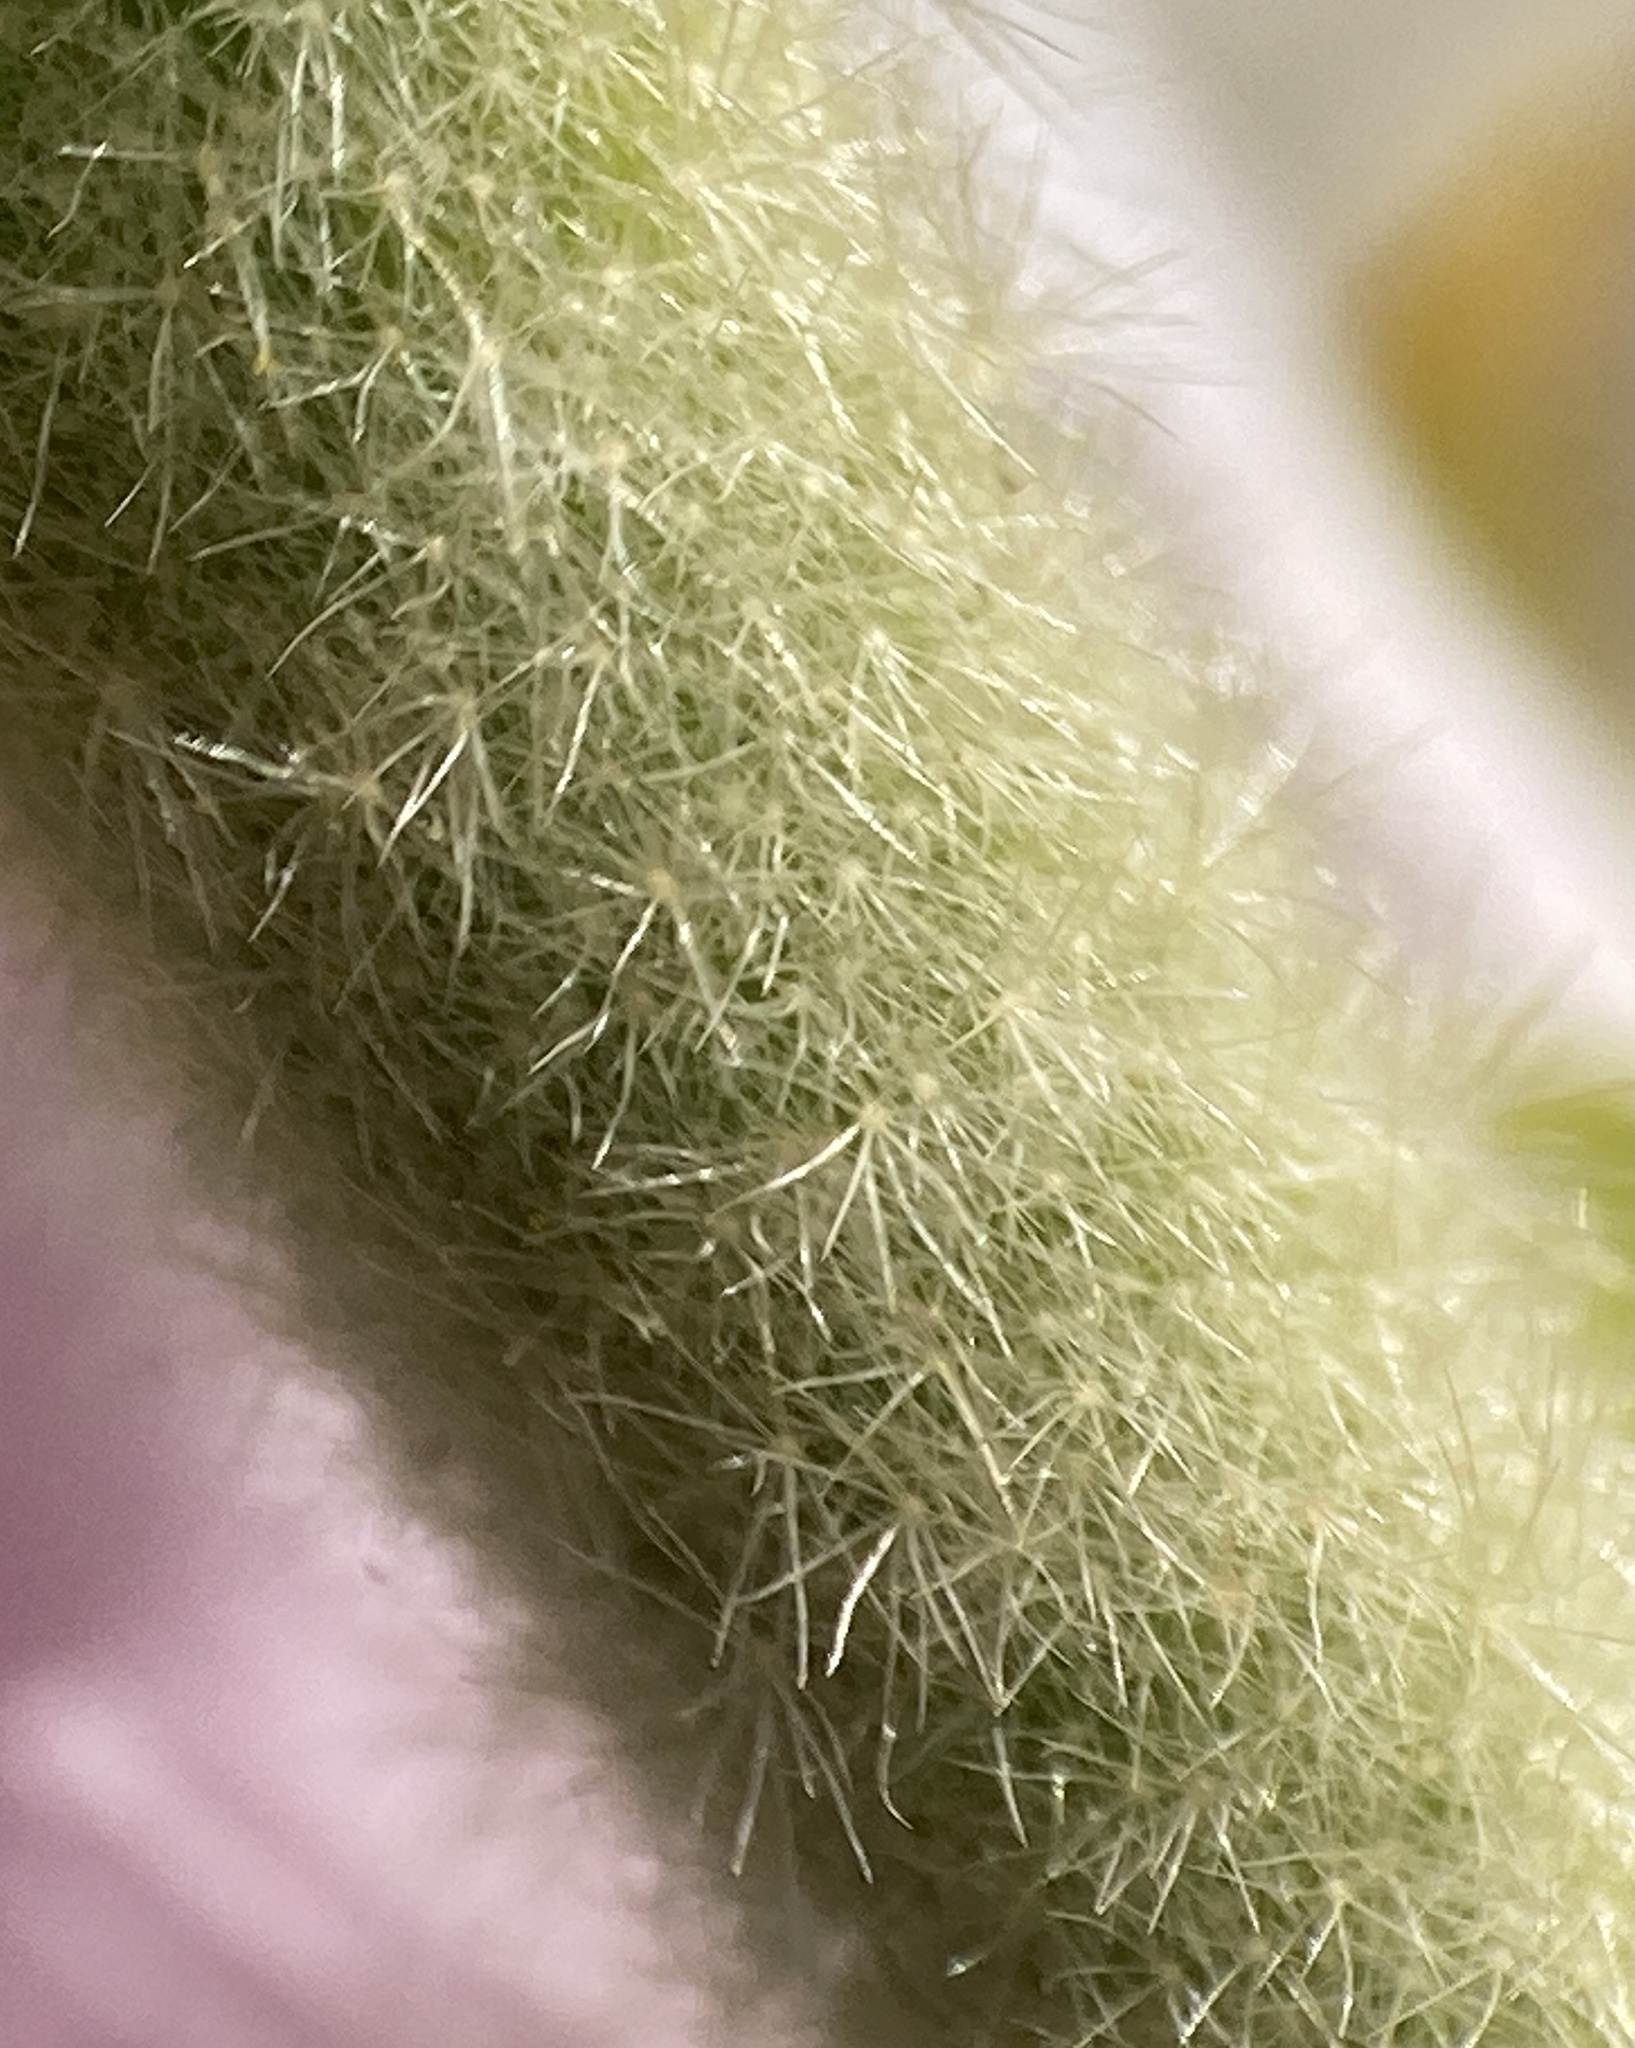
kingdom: Plantae
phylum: Tracheophyta
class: Magnoliopsida
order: Malvales
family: Malvaceae
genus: Malacothamnus
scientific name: Malacothamnus aboriginum
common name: Indian valley bush-mallow
